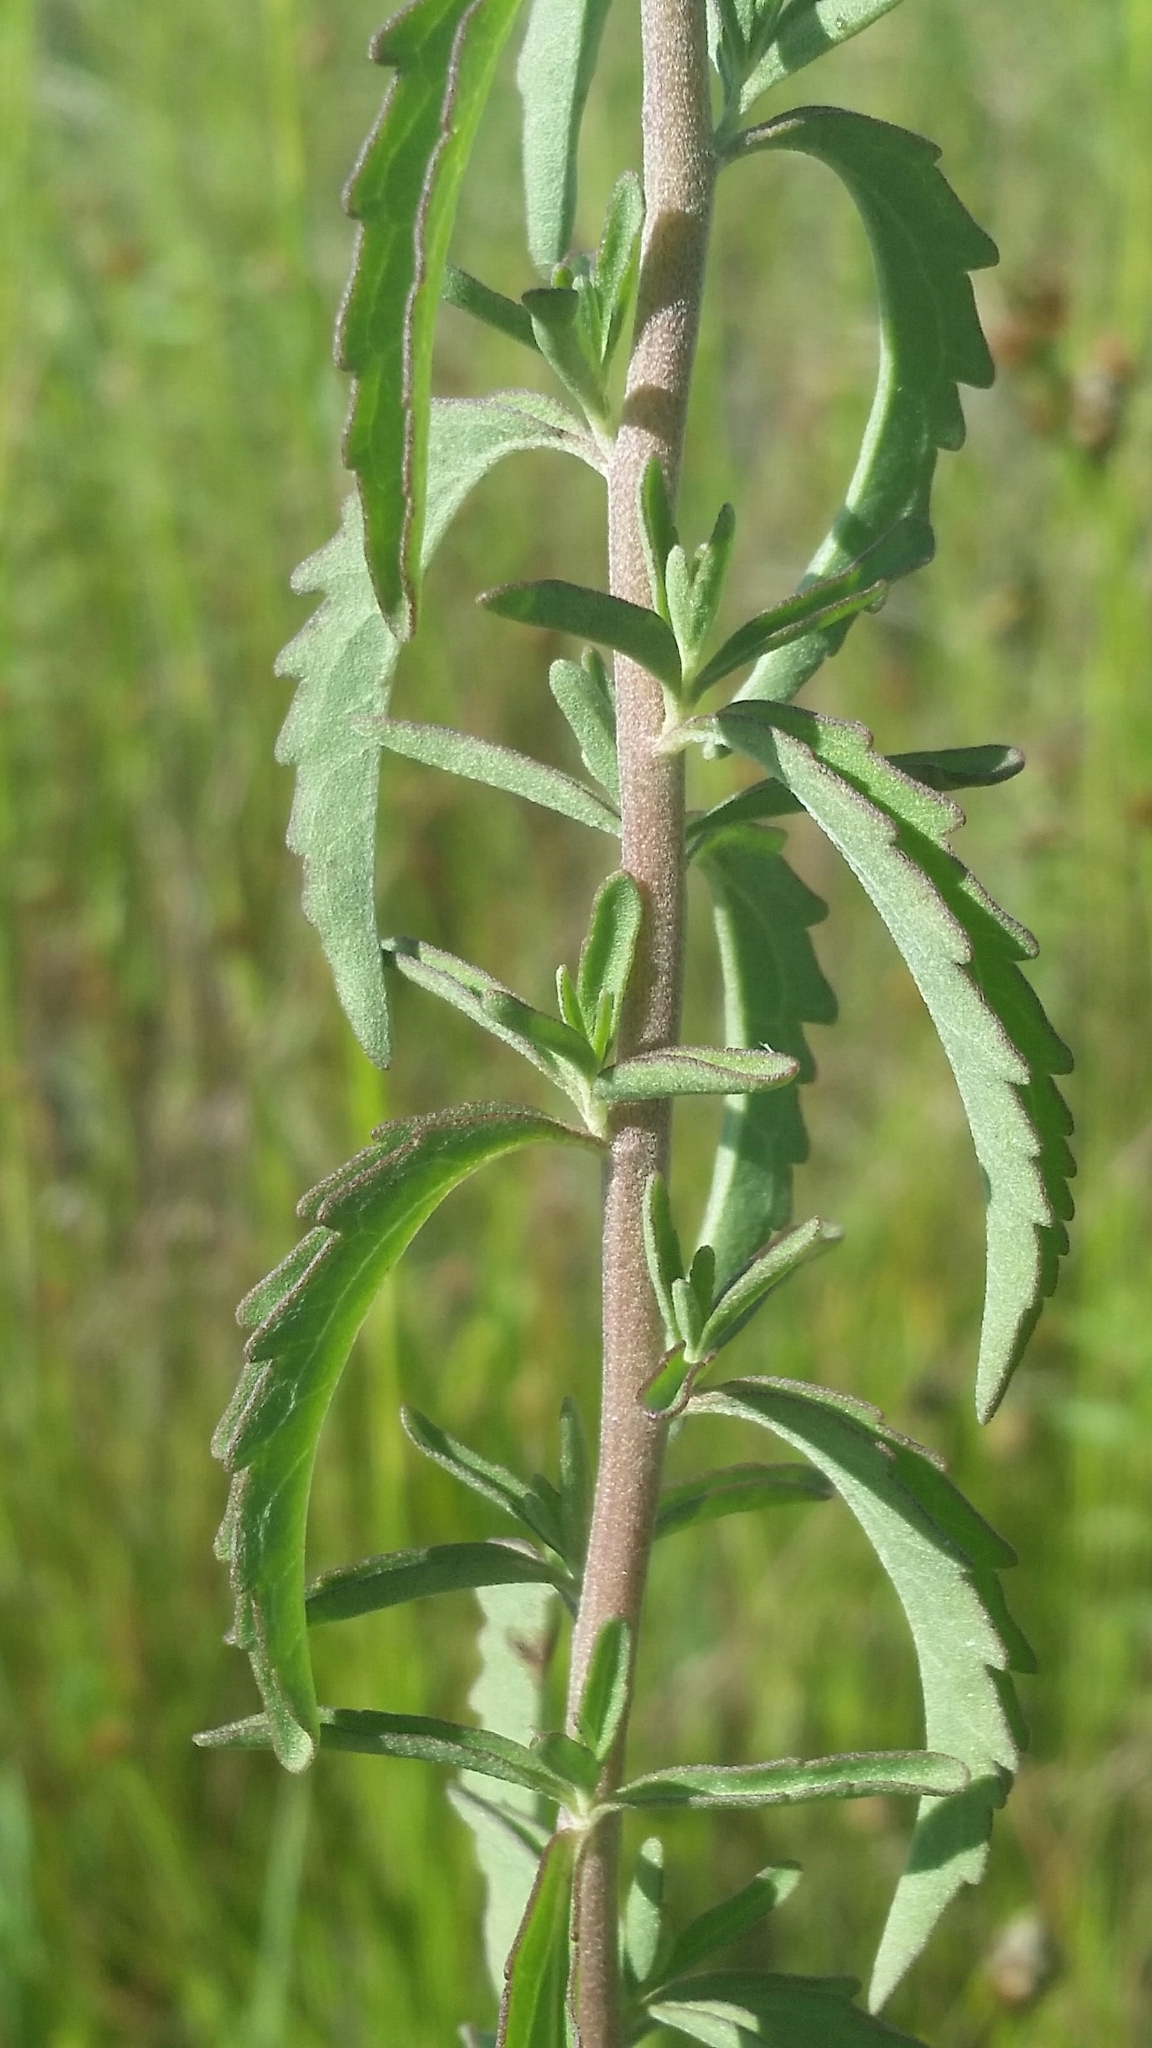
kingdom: Plantae
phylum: Tracheophyta
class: Magnoliopsida
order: Asterales
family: Asteraceae
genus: Eupatorium
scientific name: Eupatorium mohrii
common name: Mohr's thoroughwort
